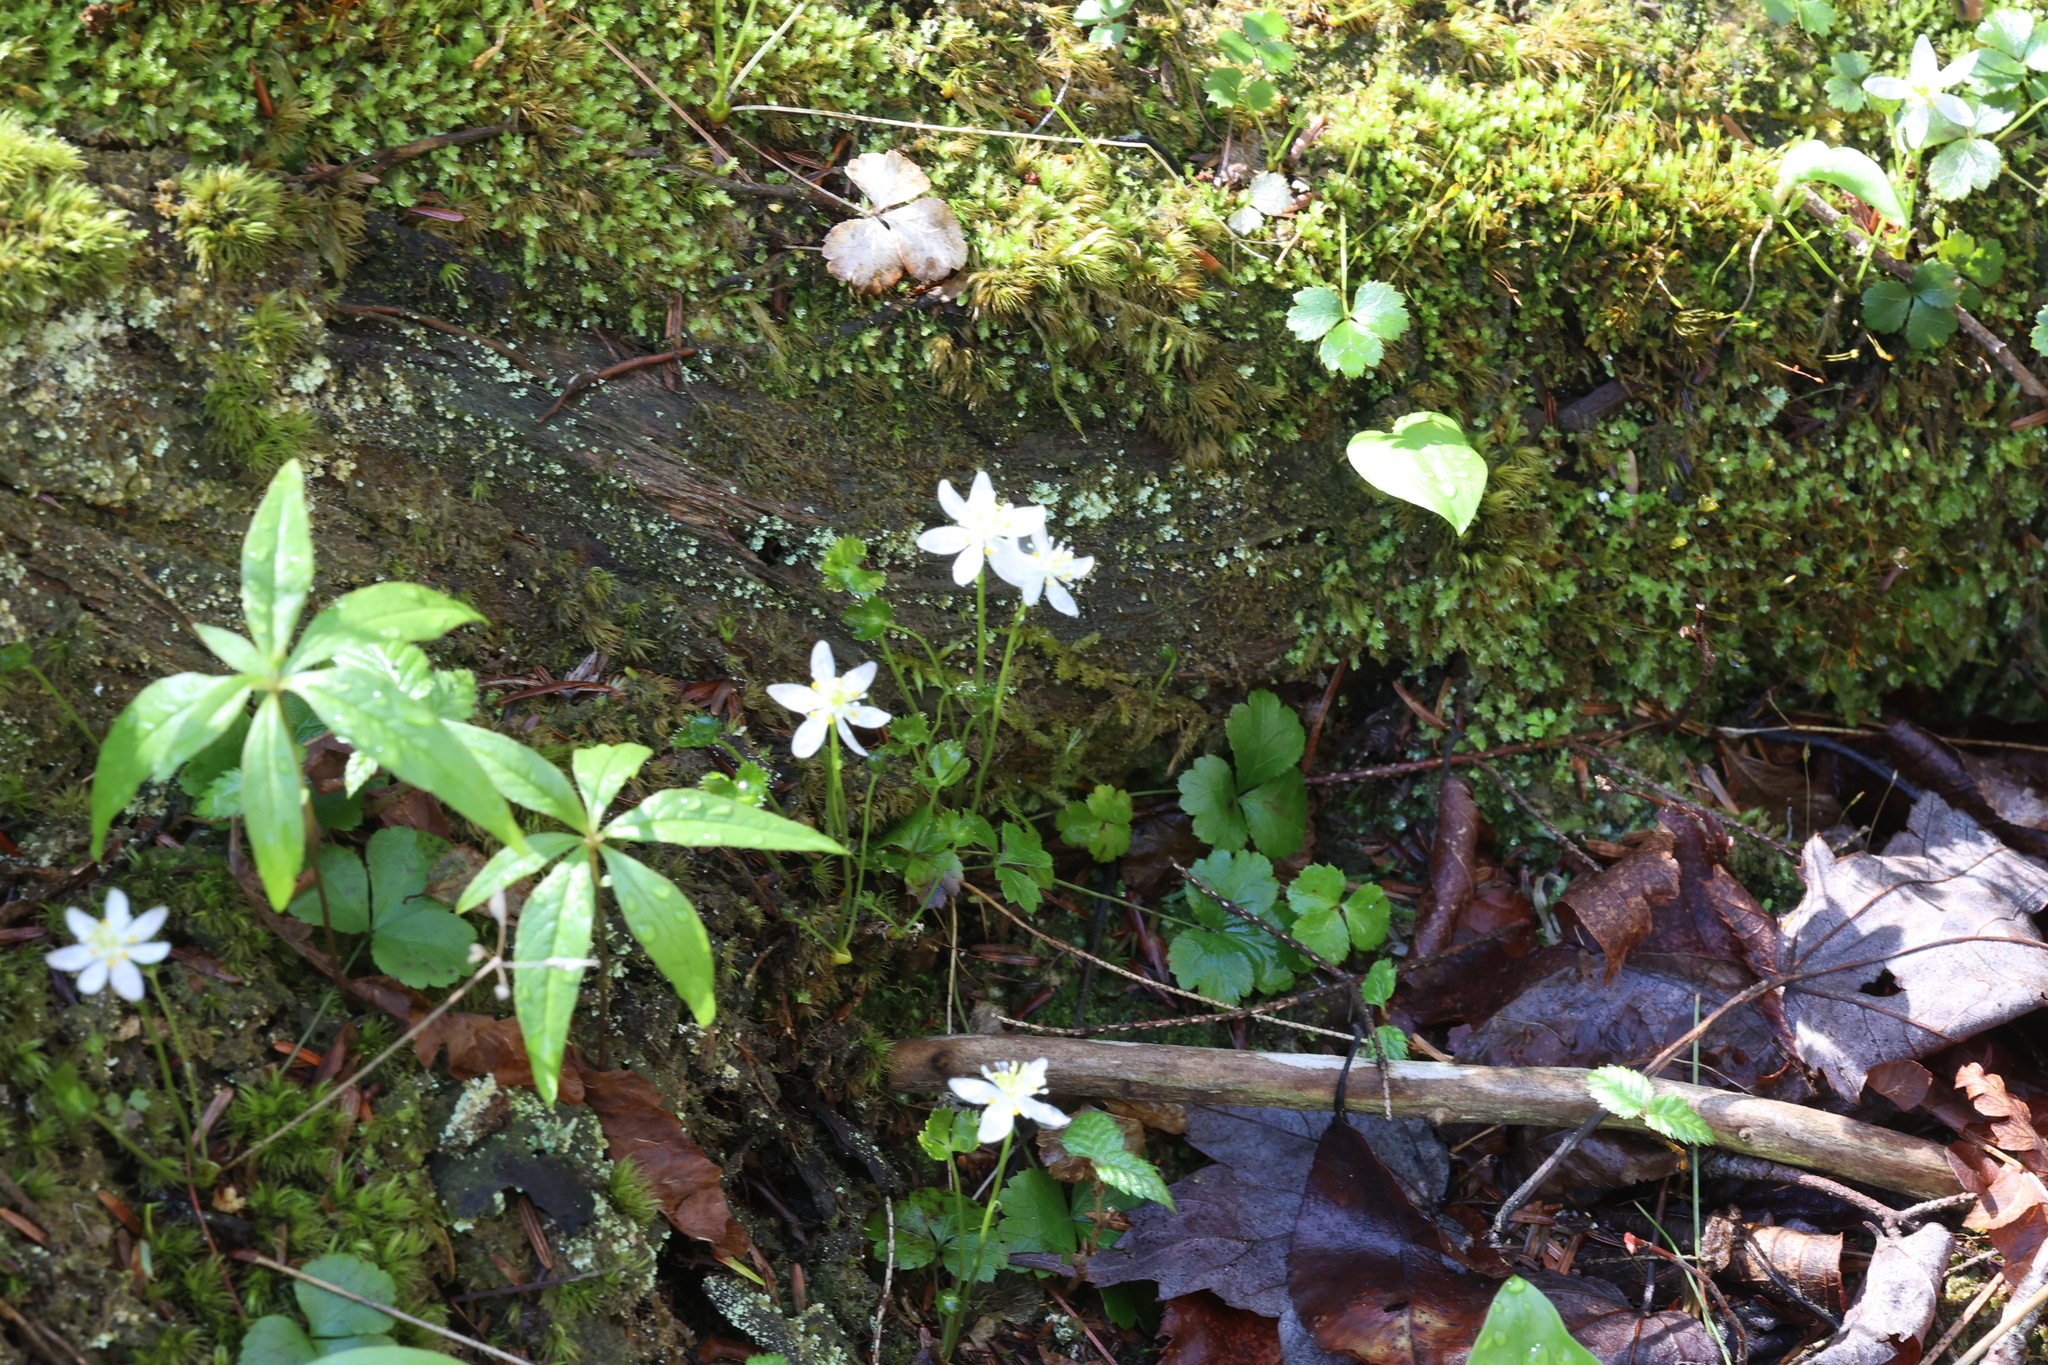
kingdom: Plantae
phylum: Tracheophyta
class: Magnoliopsida
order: Ranunculales
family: Ranunculaceae
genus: Coptis
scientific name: Coptis trifolia
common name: Canker-root
